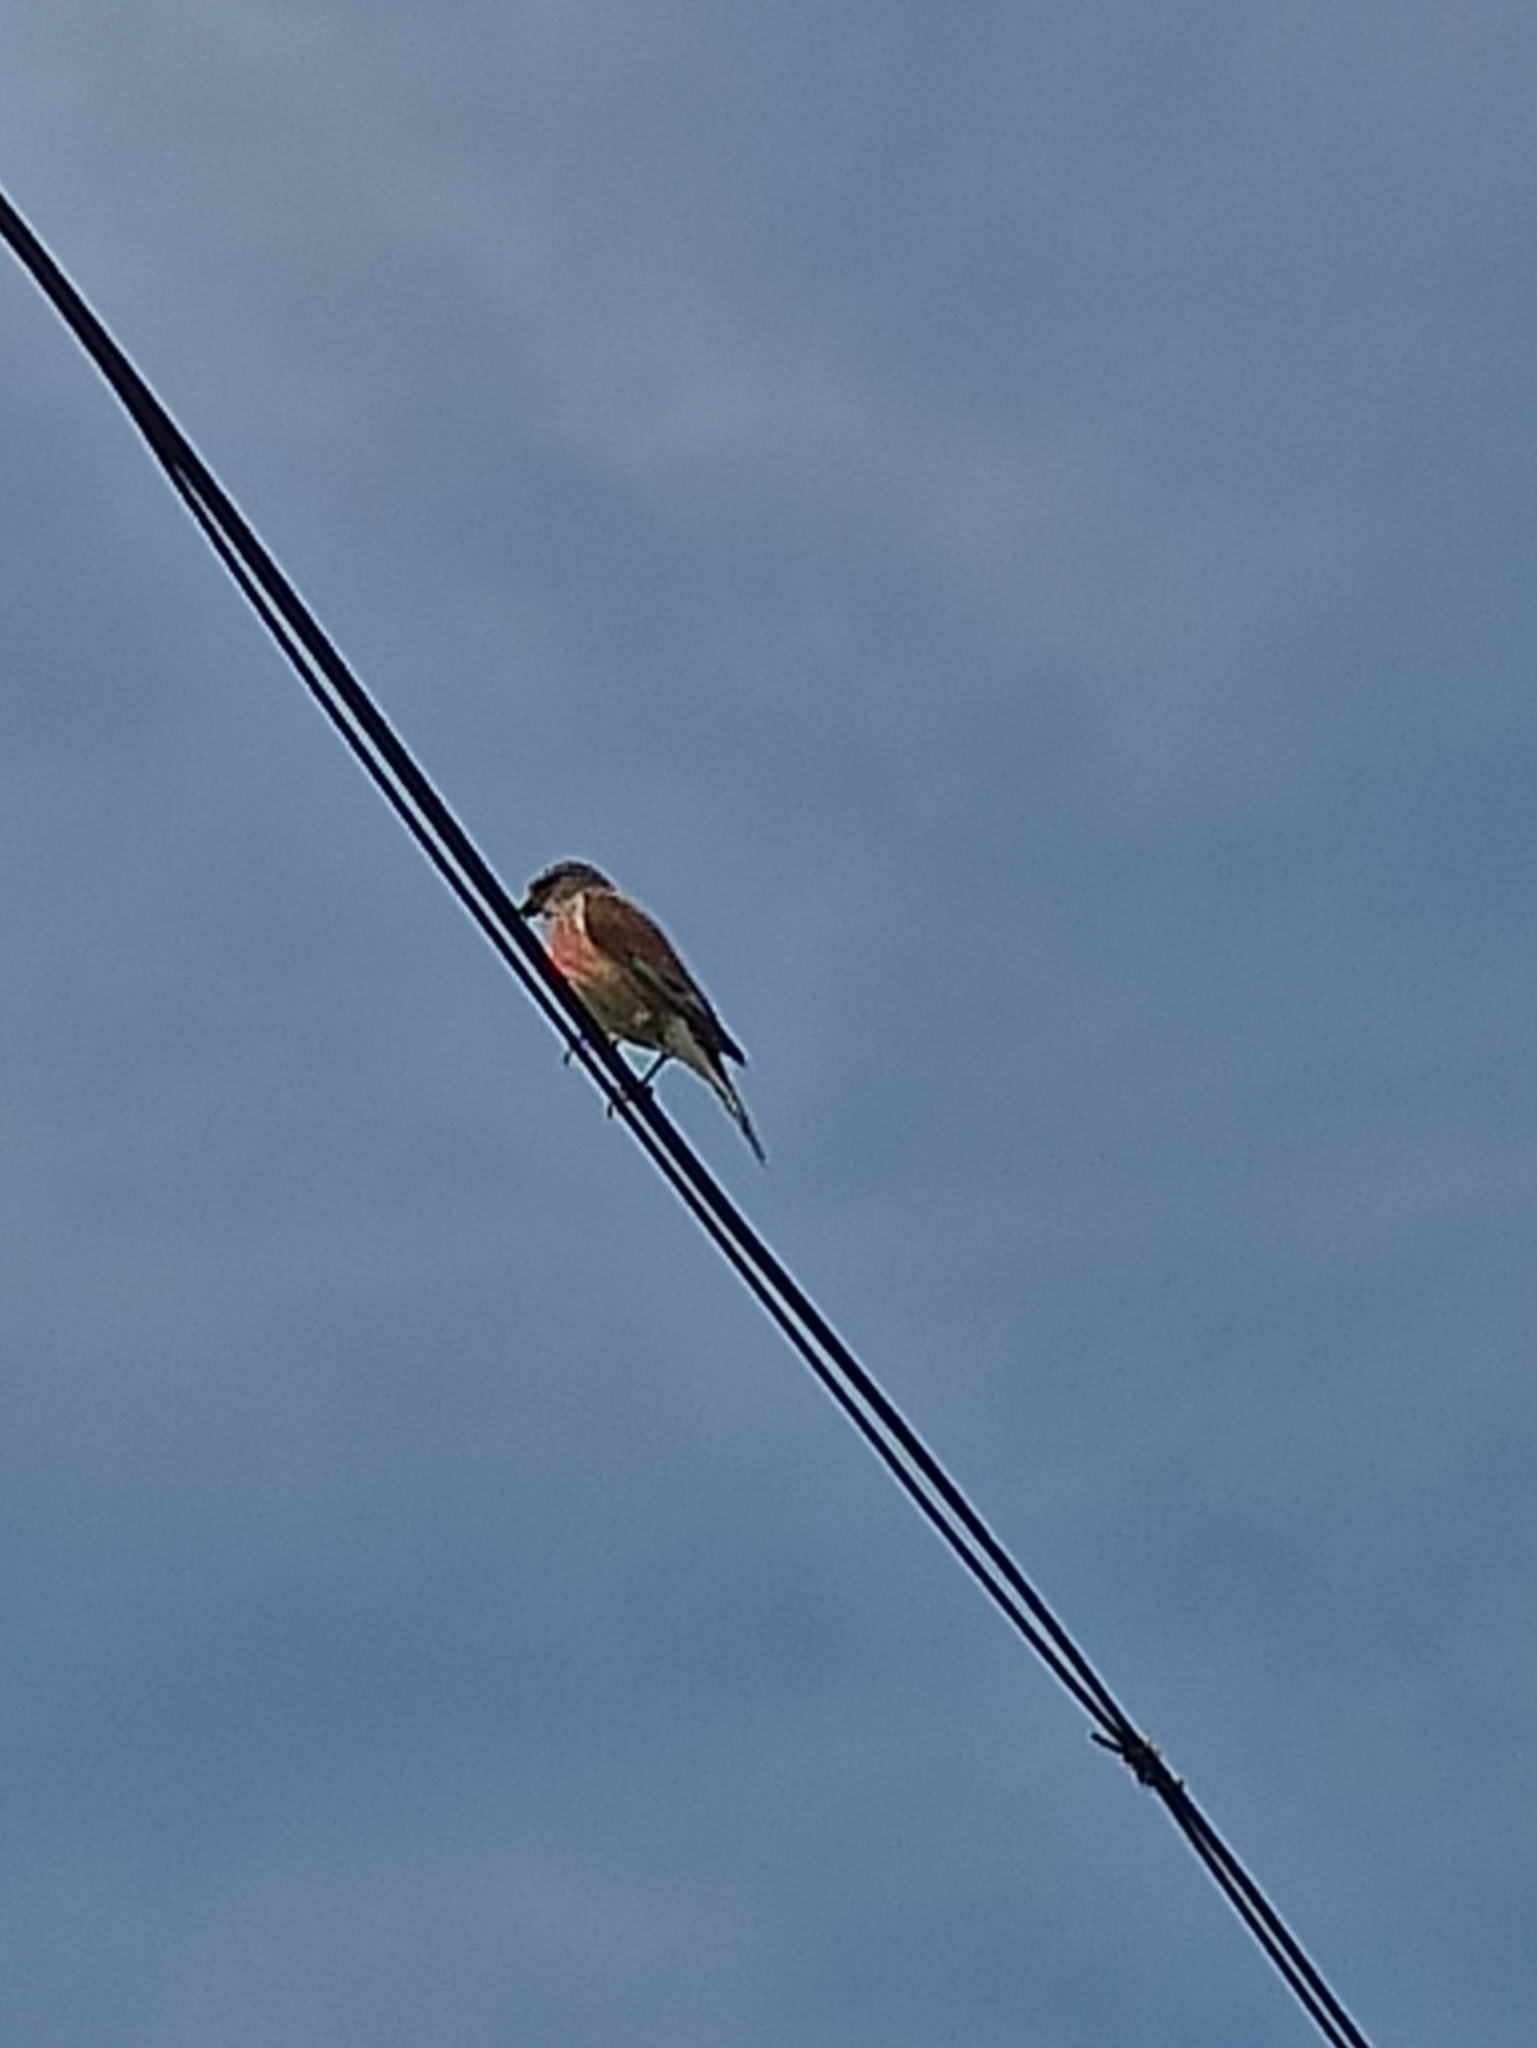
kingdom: Animalia
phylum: Chordata
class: Aves
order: Passeriformes
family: Fringillidae
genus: Linaria
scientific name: Linaria cannabina
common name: Common linnet
